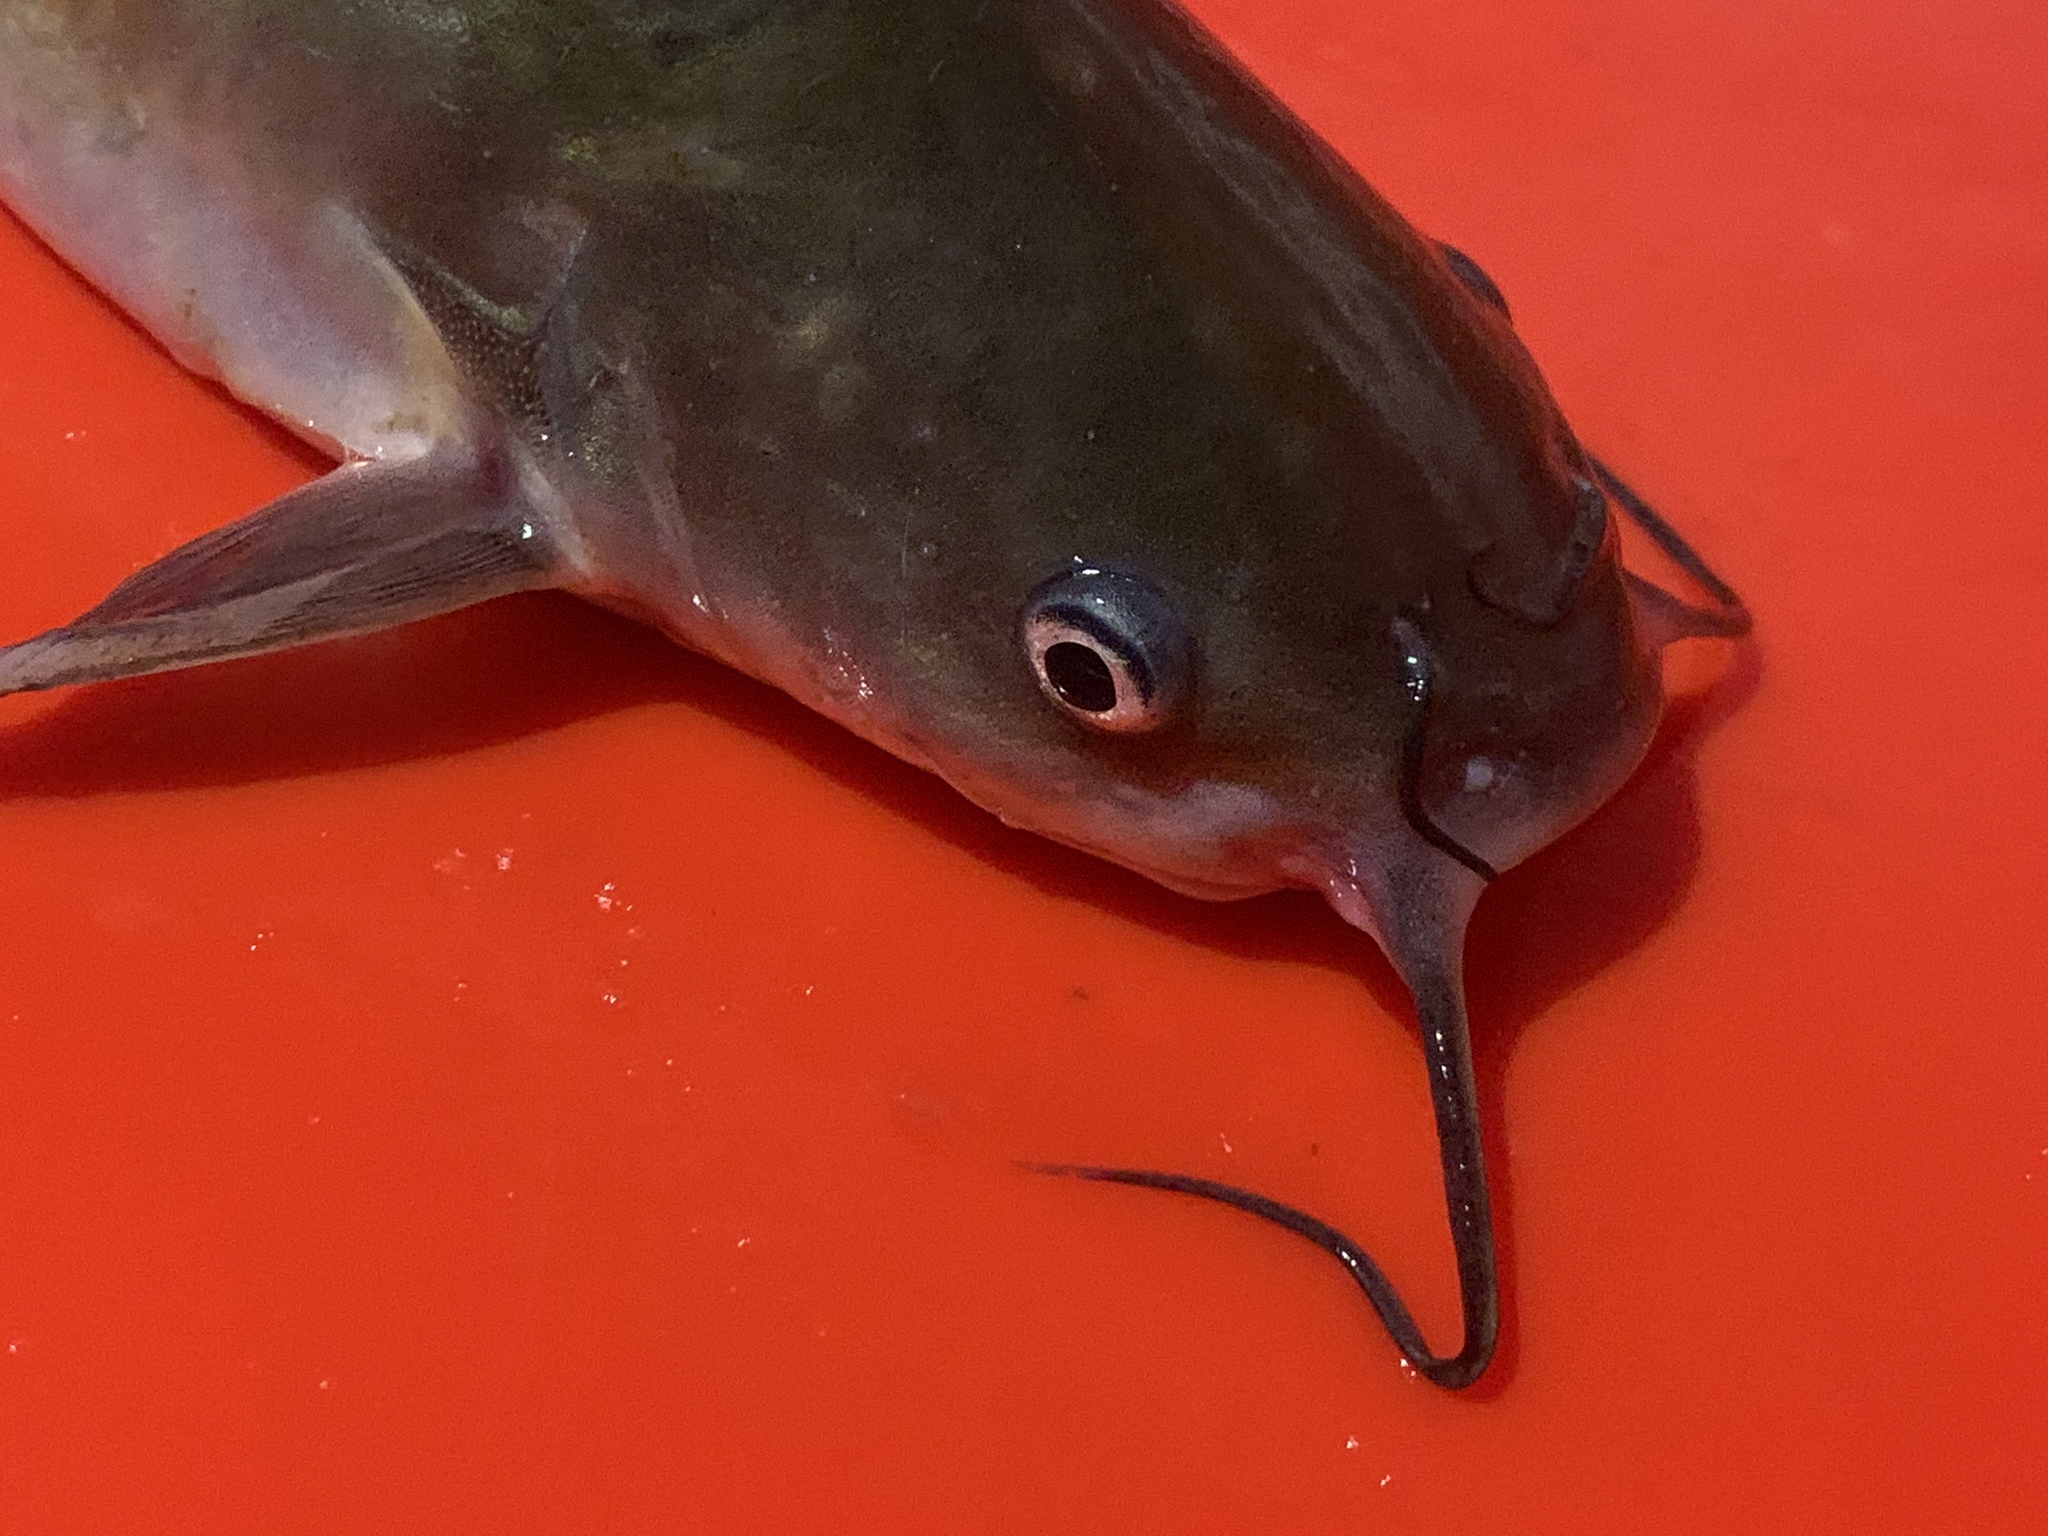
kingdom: Animalia
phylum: Chordata
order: Siluriformes
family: Ictaluridae
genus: Ameiurus
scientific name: Ameiurus catus
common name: White catfish
